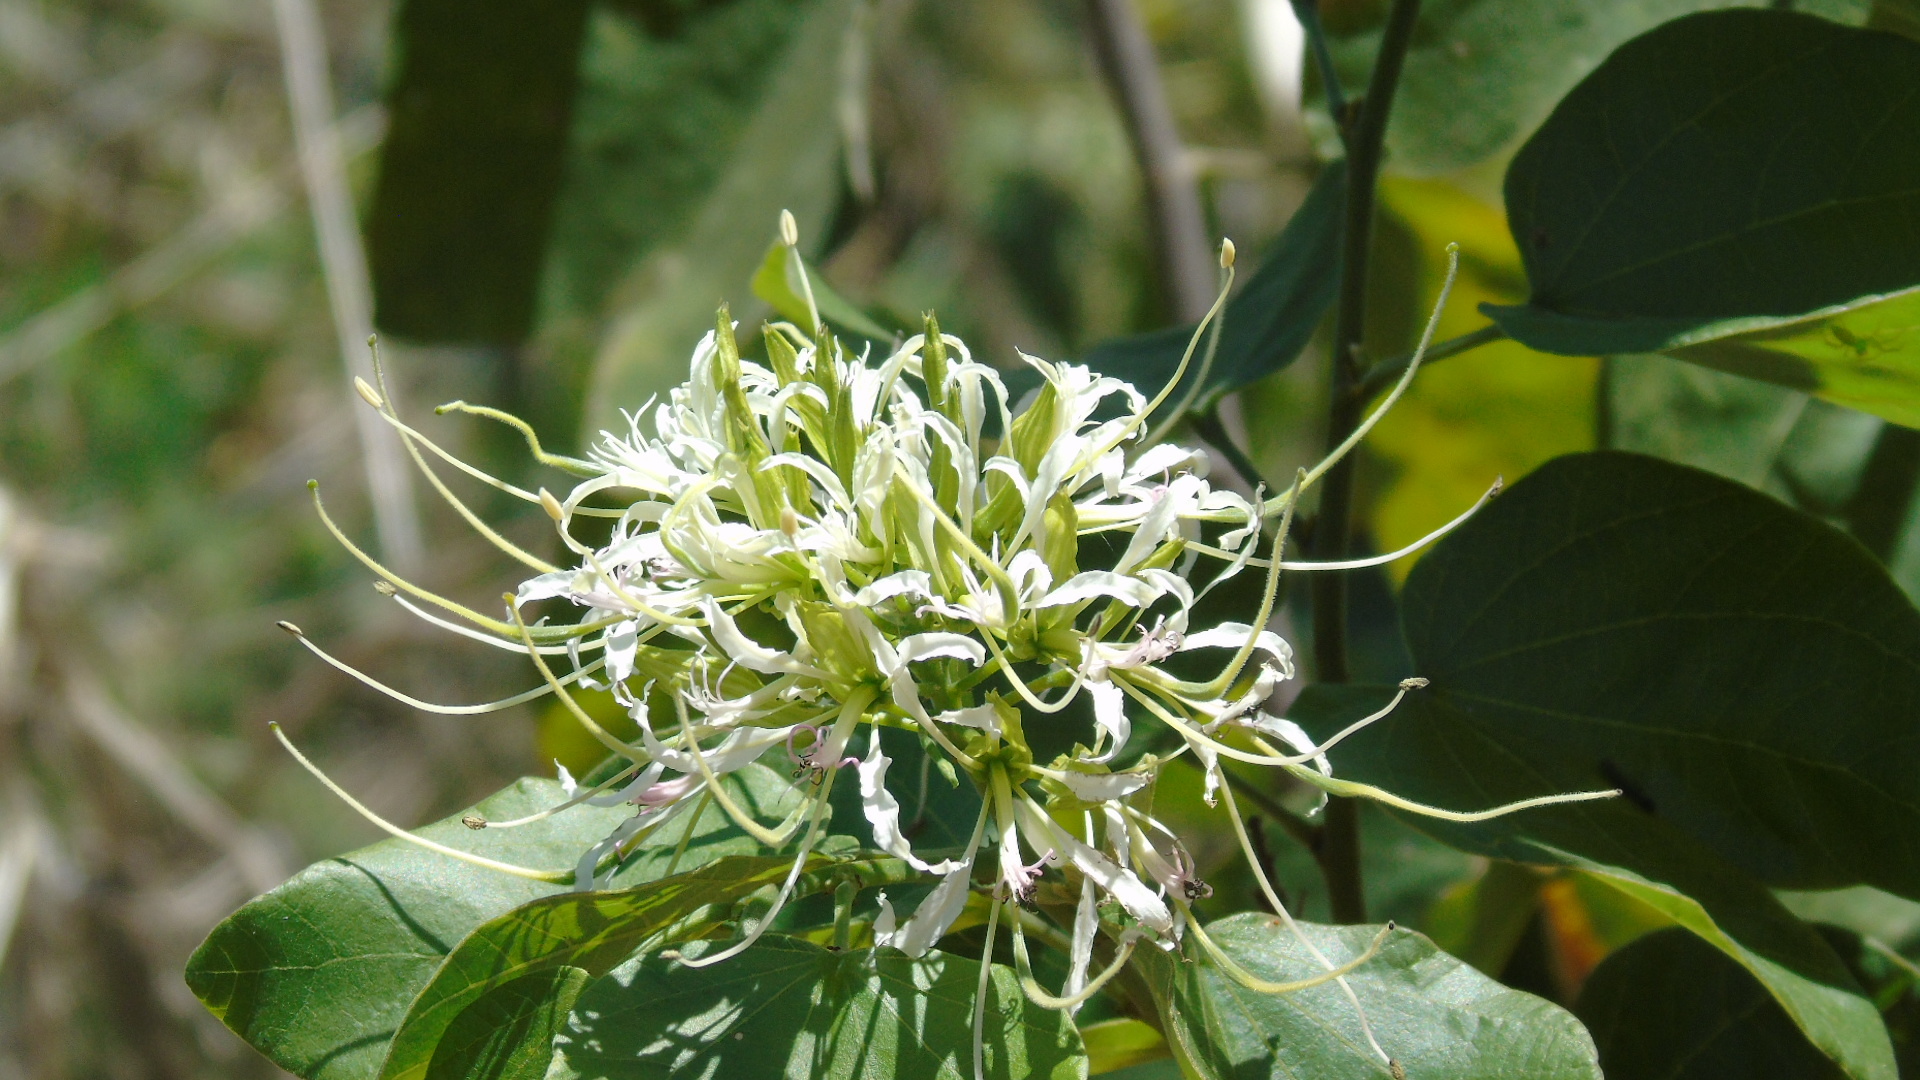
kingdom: Plantae
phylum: Tracheophyta
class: Magnoliopsida
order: Fabales
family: Fabaceae
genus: Bauhinia
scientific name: Bauhinia divaricata
